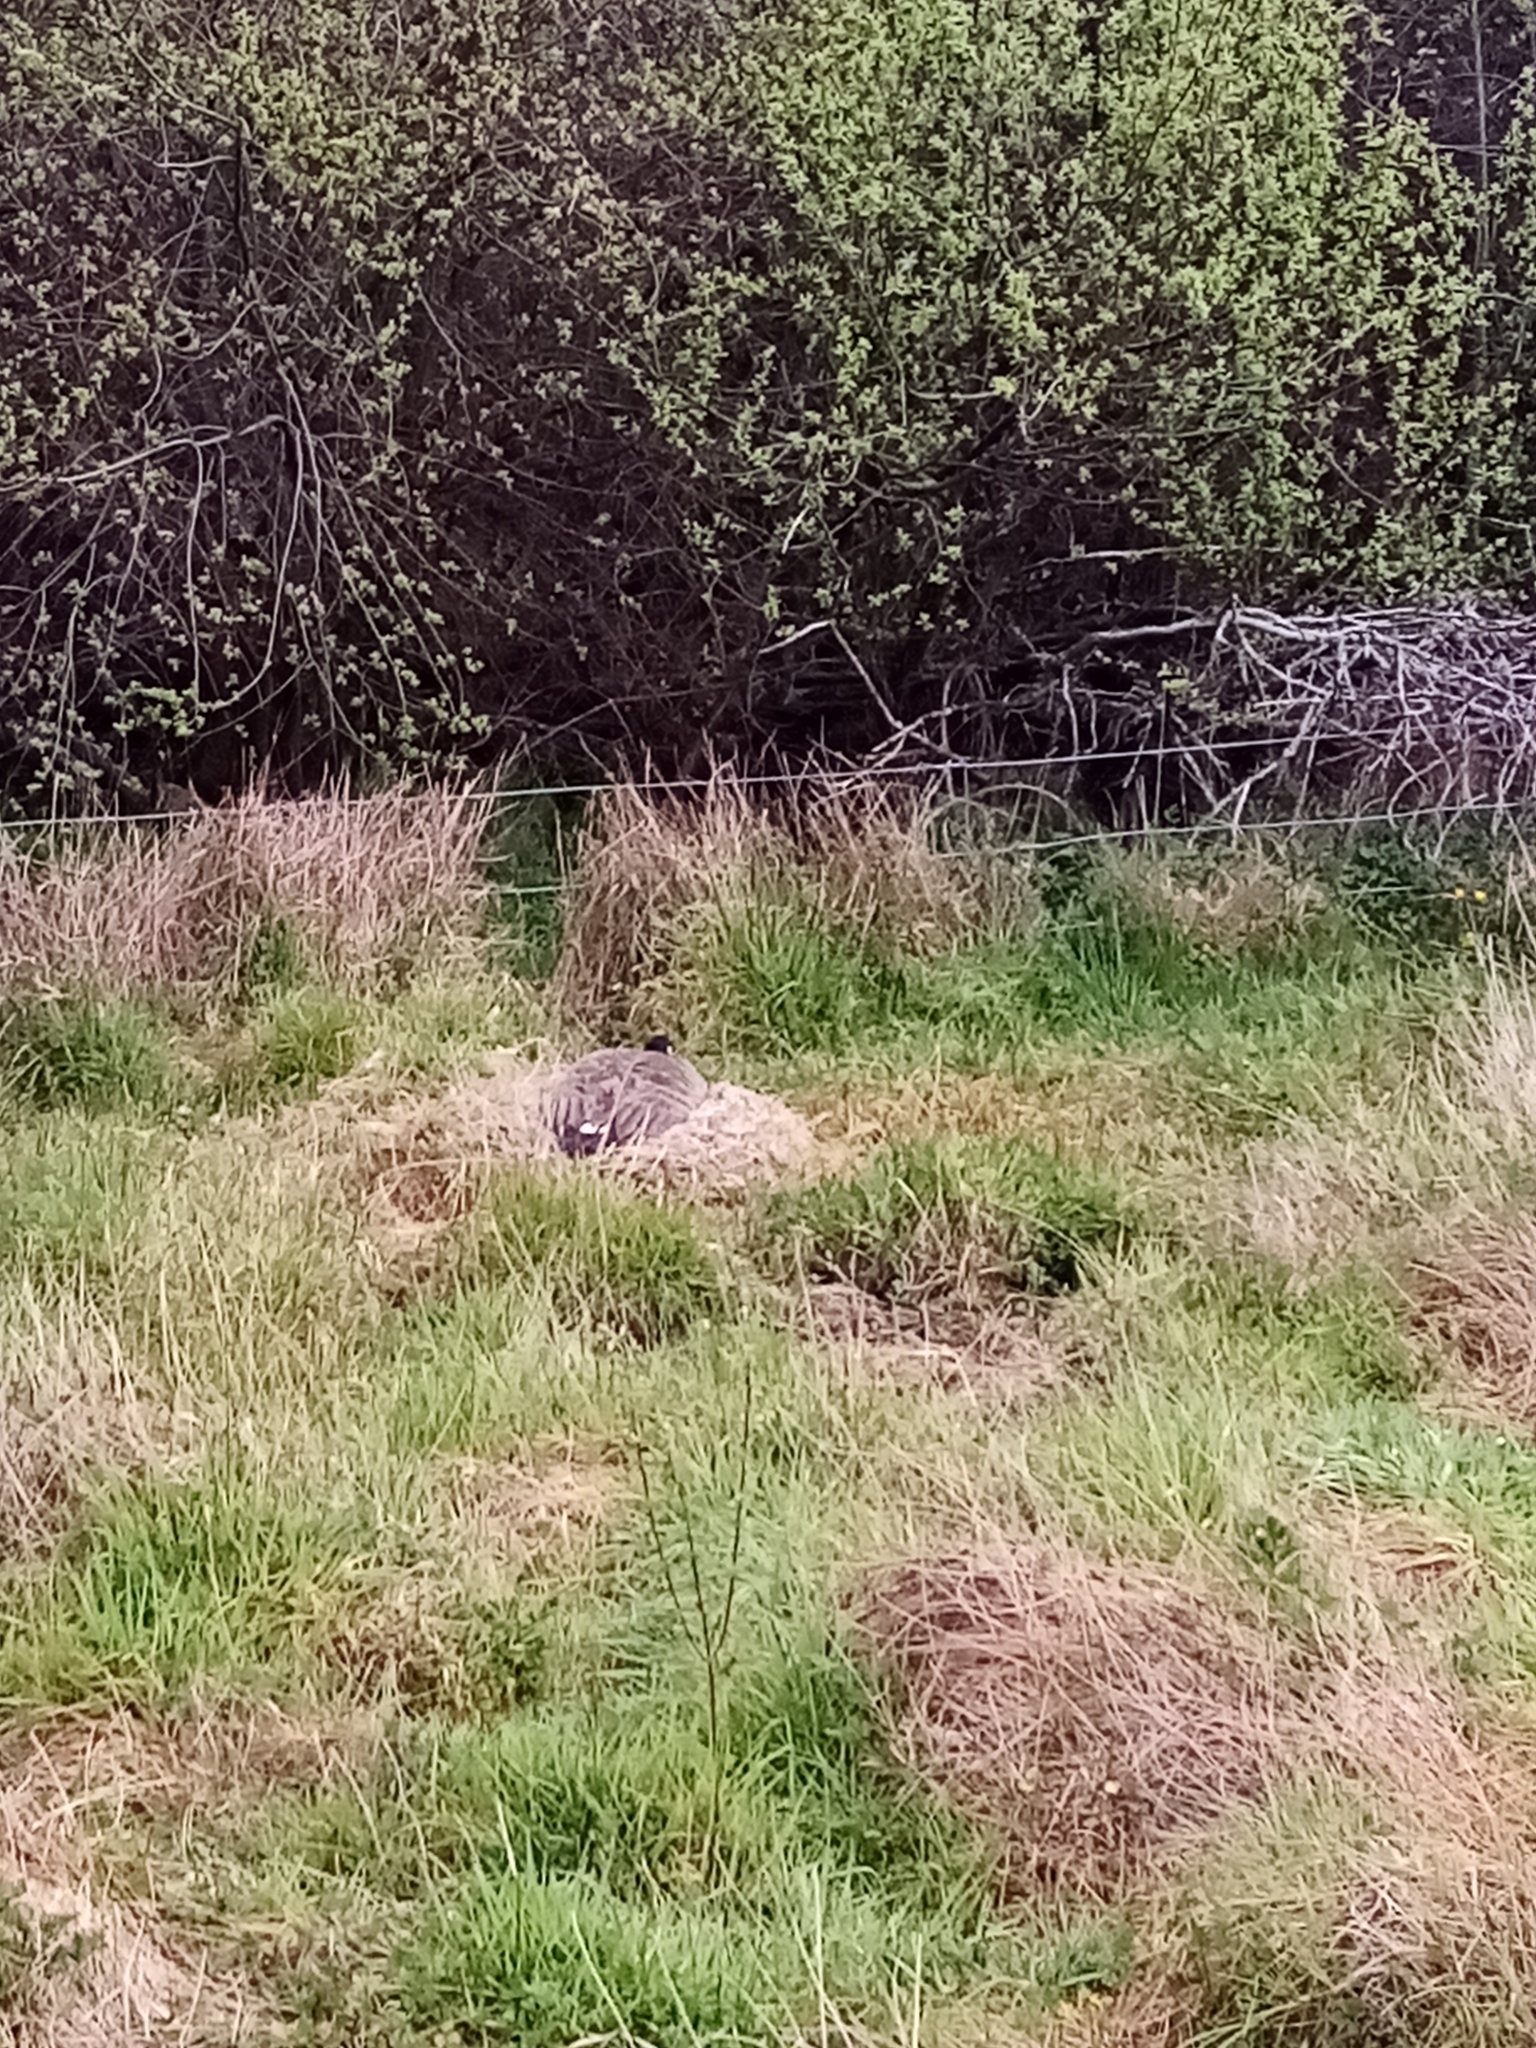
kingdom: Animalia
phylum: Chordata
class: Aves
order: Anseriformes
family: Anatidae
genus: Branta
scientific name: Branta canadensis
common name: Canada goose
